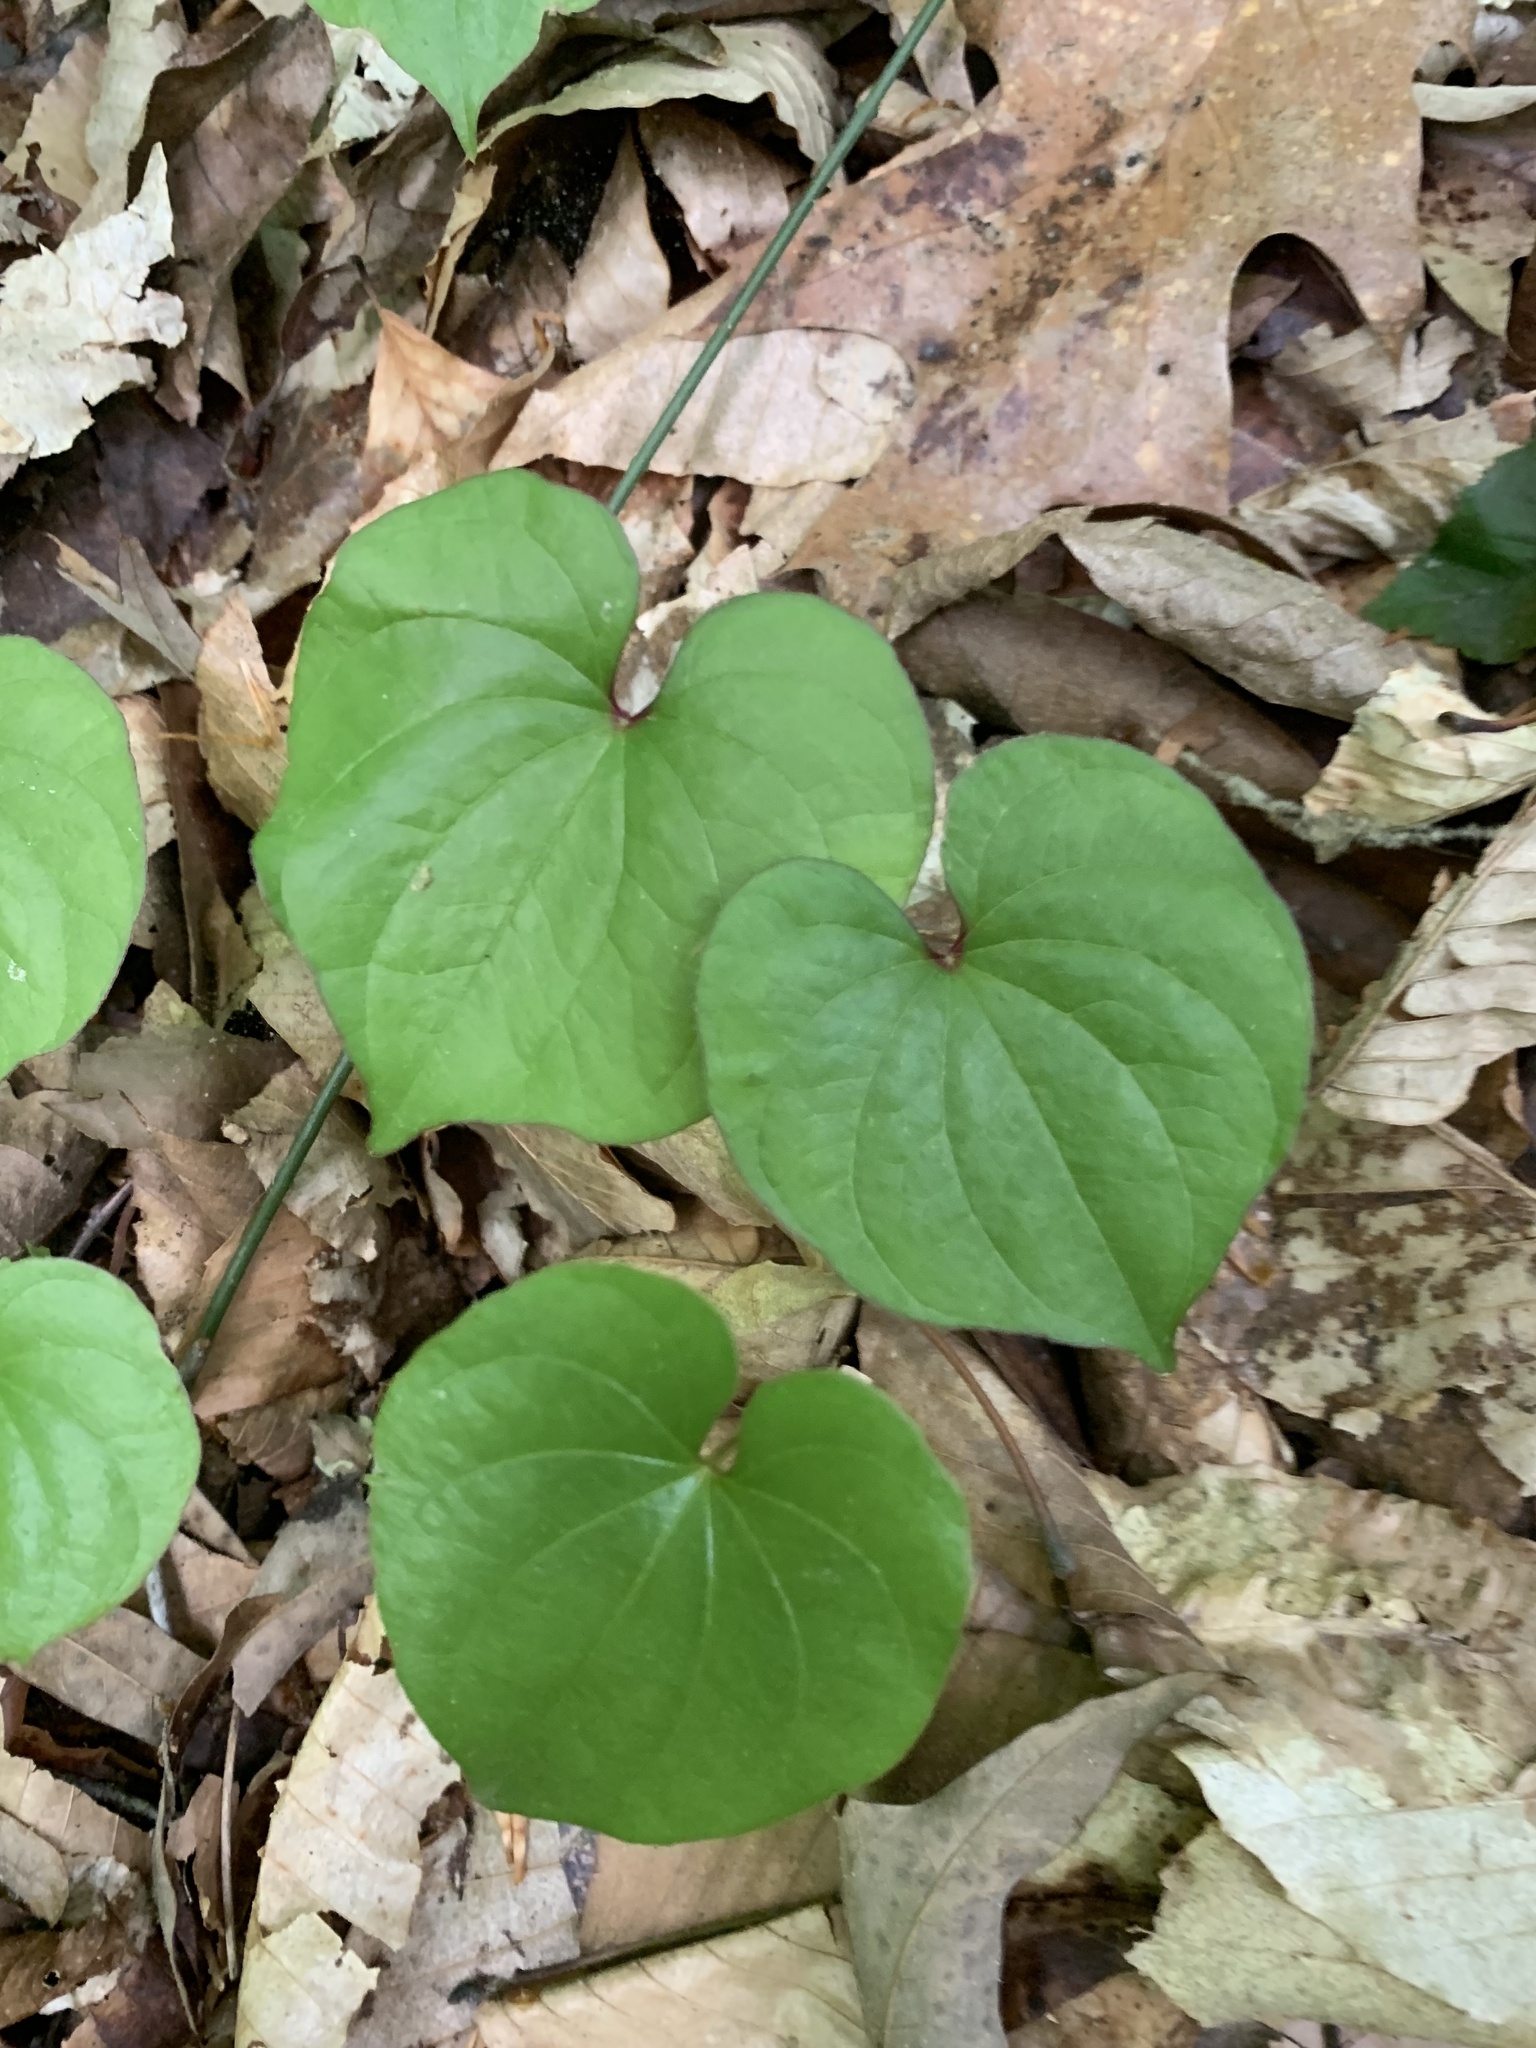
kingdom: Plantae
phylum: Tracheophyta
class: Liliopsida
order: Dioscoreales
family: Dioscoreaceae
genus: Dioscorea
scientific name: Dioscorea polystachya
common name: Chinese yam
